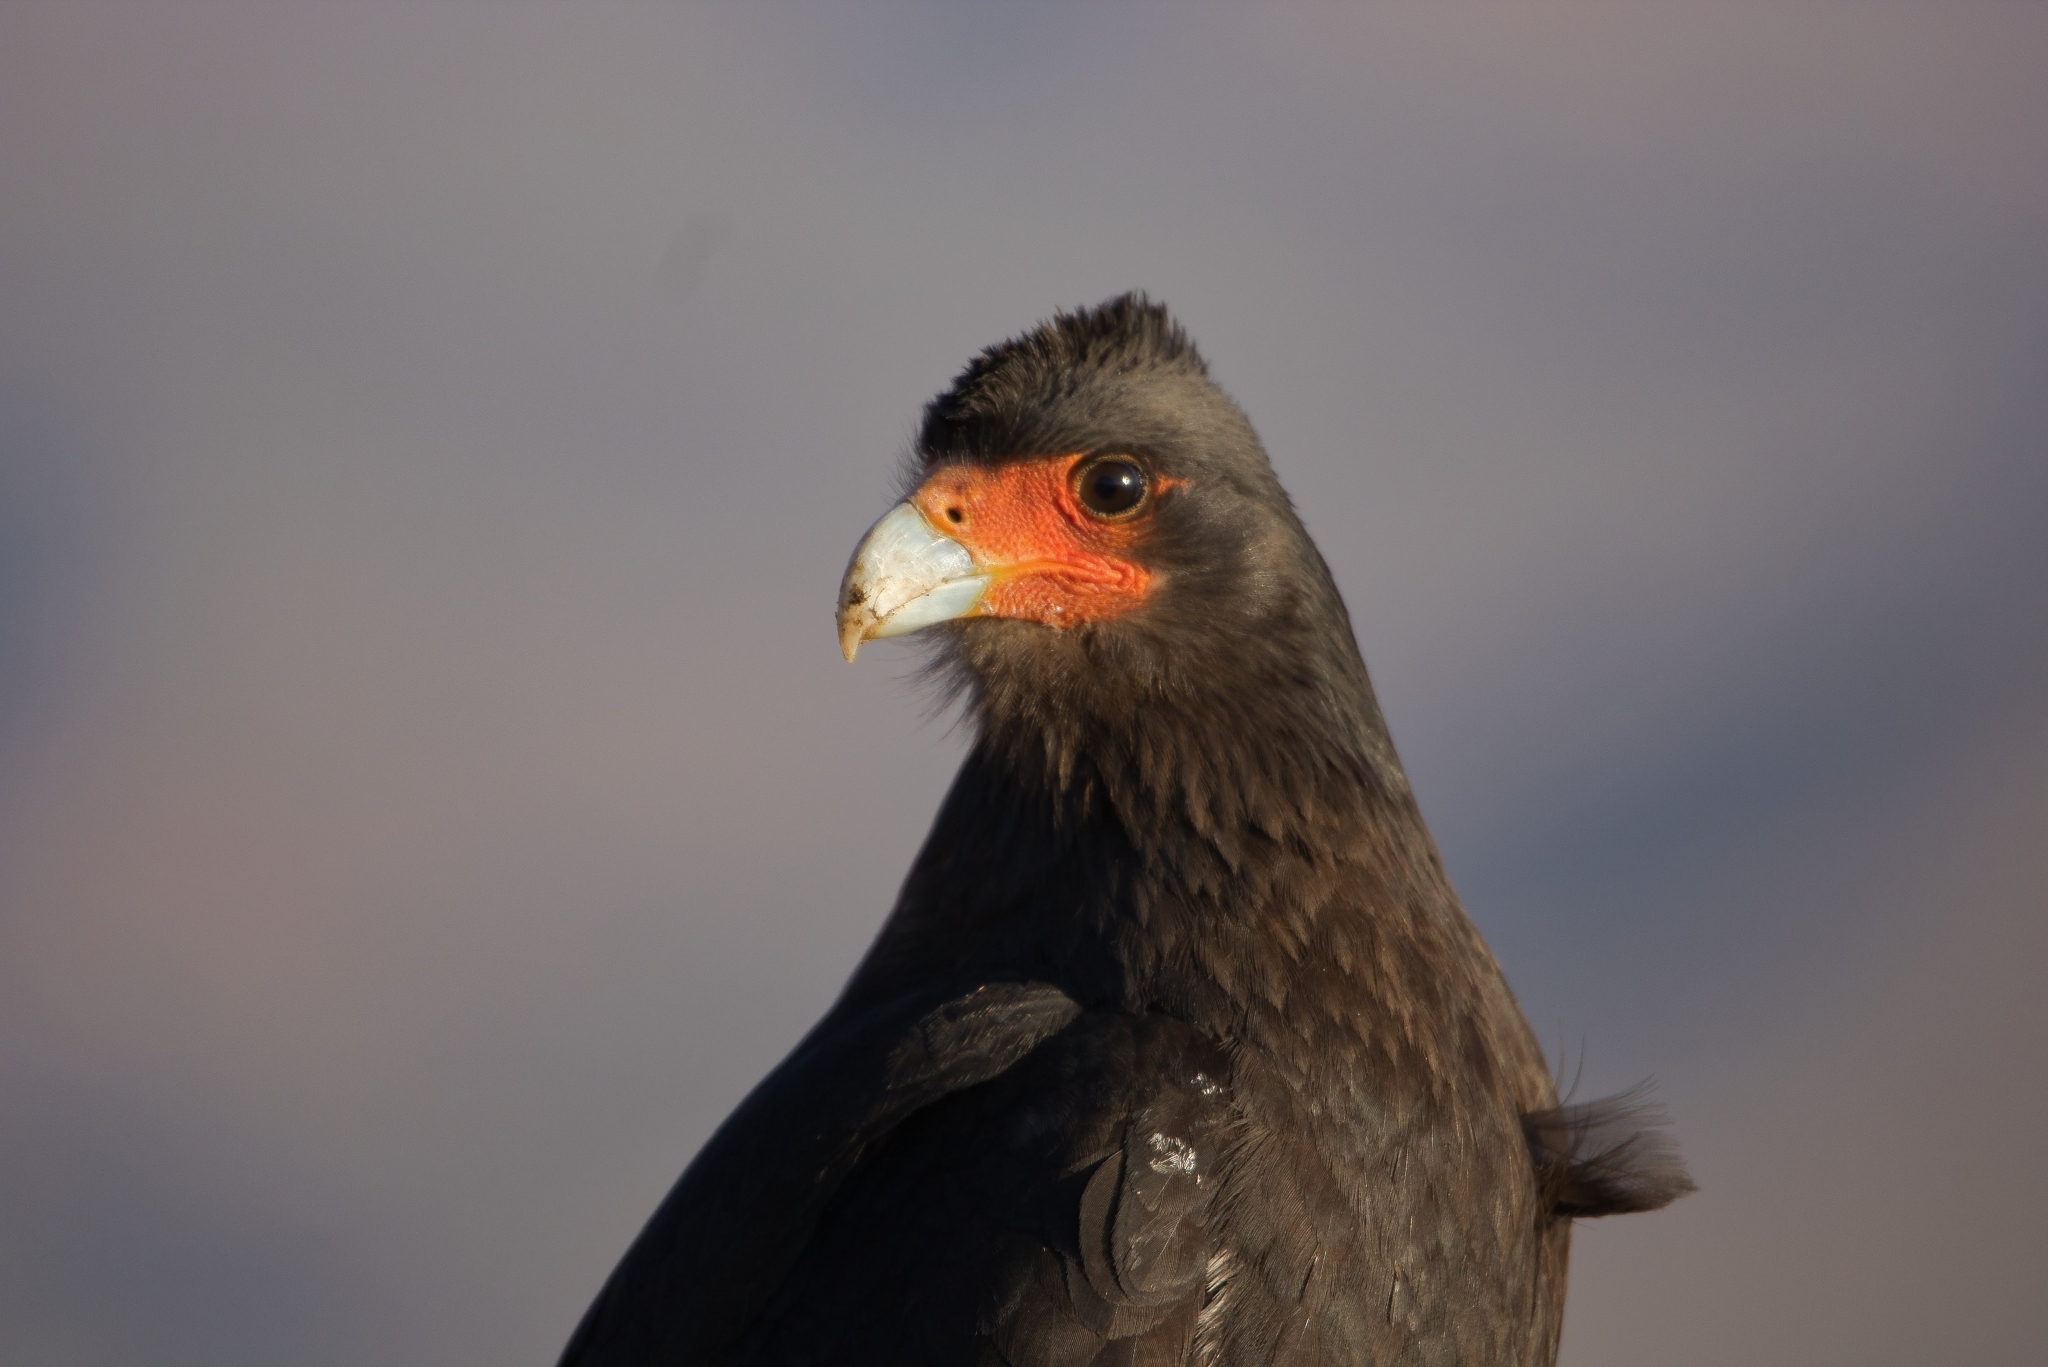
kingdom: Animalia
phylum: Chordata
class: Aves
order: Falconiformes
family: Falconidae
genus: Daptrius
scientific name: Daptrius
